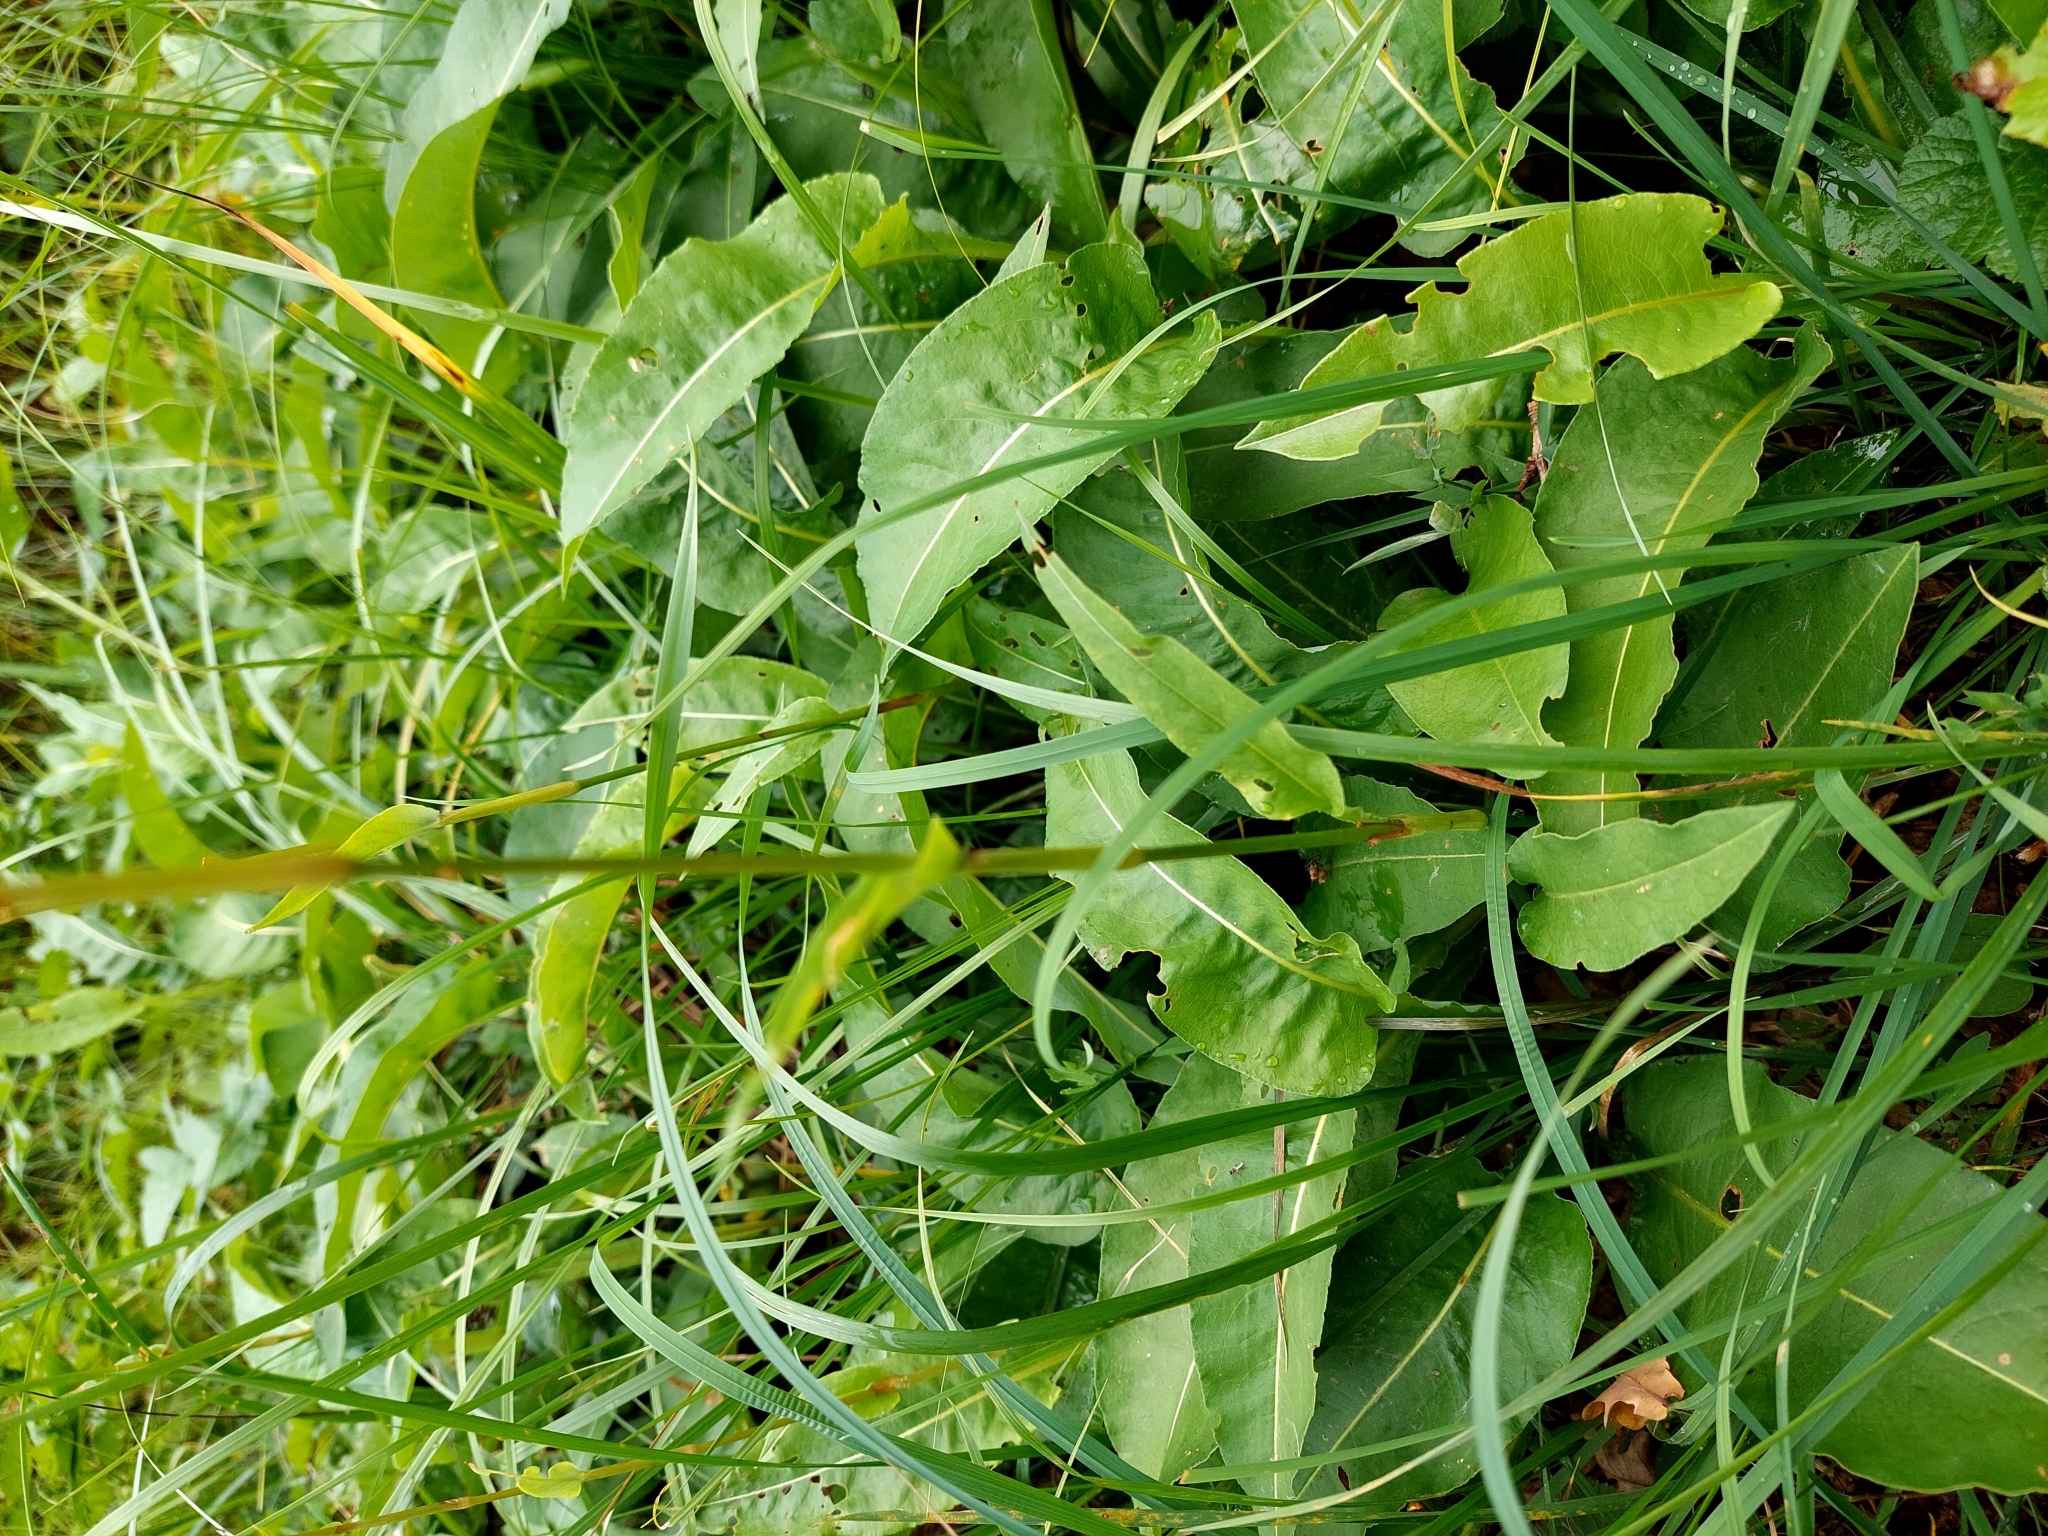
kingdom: Plantae
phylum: Tracheophyta
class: Magnoliopsida
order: Caryophyllales
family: Polygonaceae
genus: Bistorta
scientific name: Bistorta officinalis
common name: Common bistort
